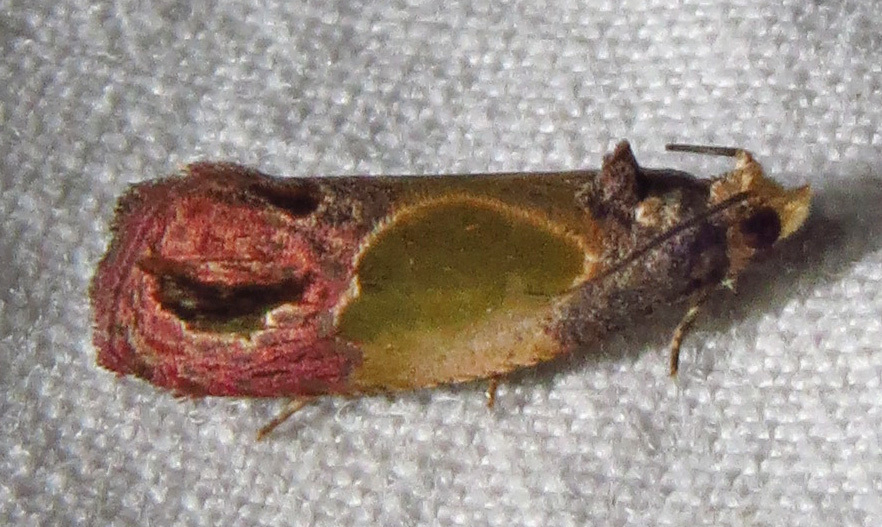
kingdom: Animalia
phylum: Arthropoda
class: Insecta
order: Lepidoptera
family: Tortricidae
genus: Eumarozia
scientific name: Eumarozia malachitana
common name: Sculptured moth
